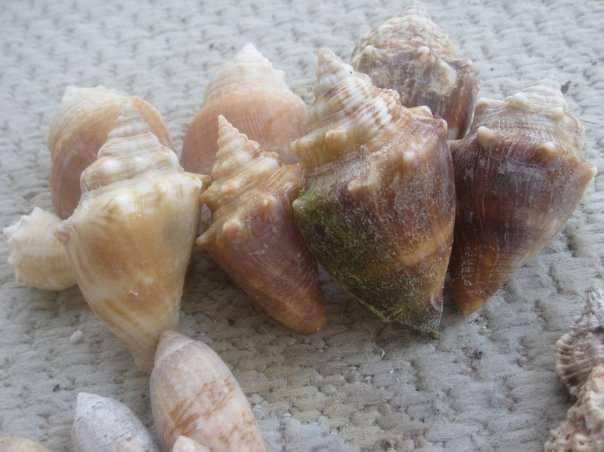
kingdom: Animalia
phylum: Mollusca
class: Gastropoda
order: Littorinimorpha
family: Strombidae
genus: Strombus
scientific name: Strombus alatus
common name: Florida fighting conch
